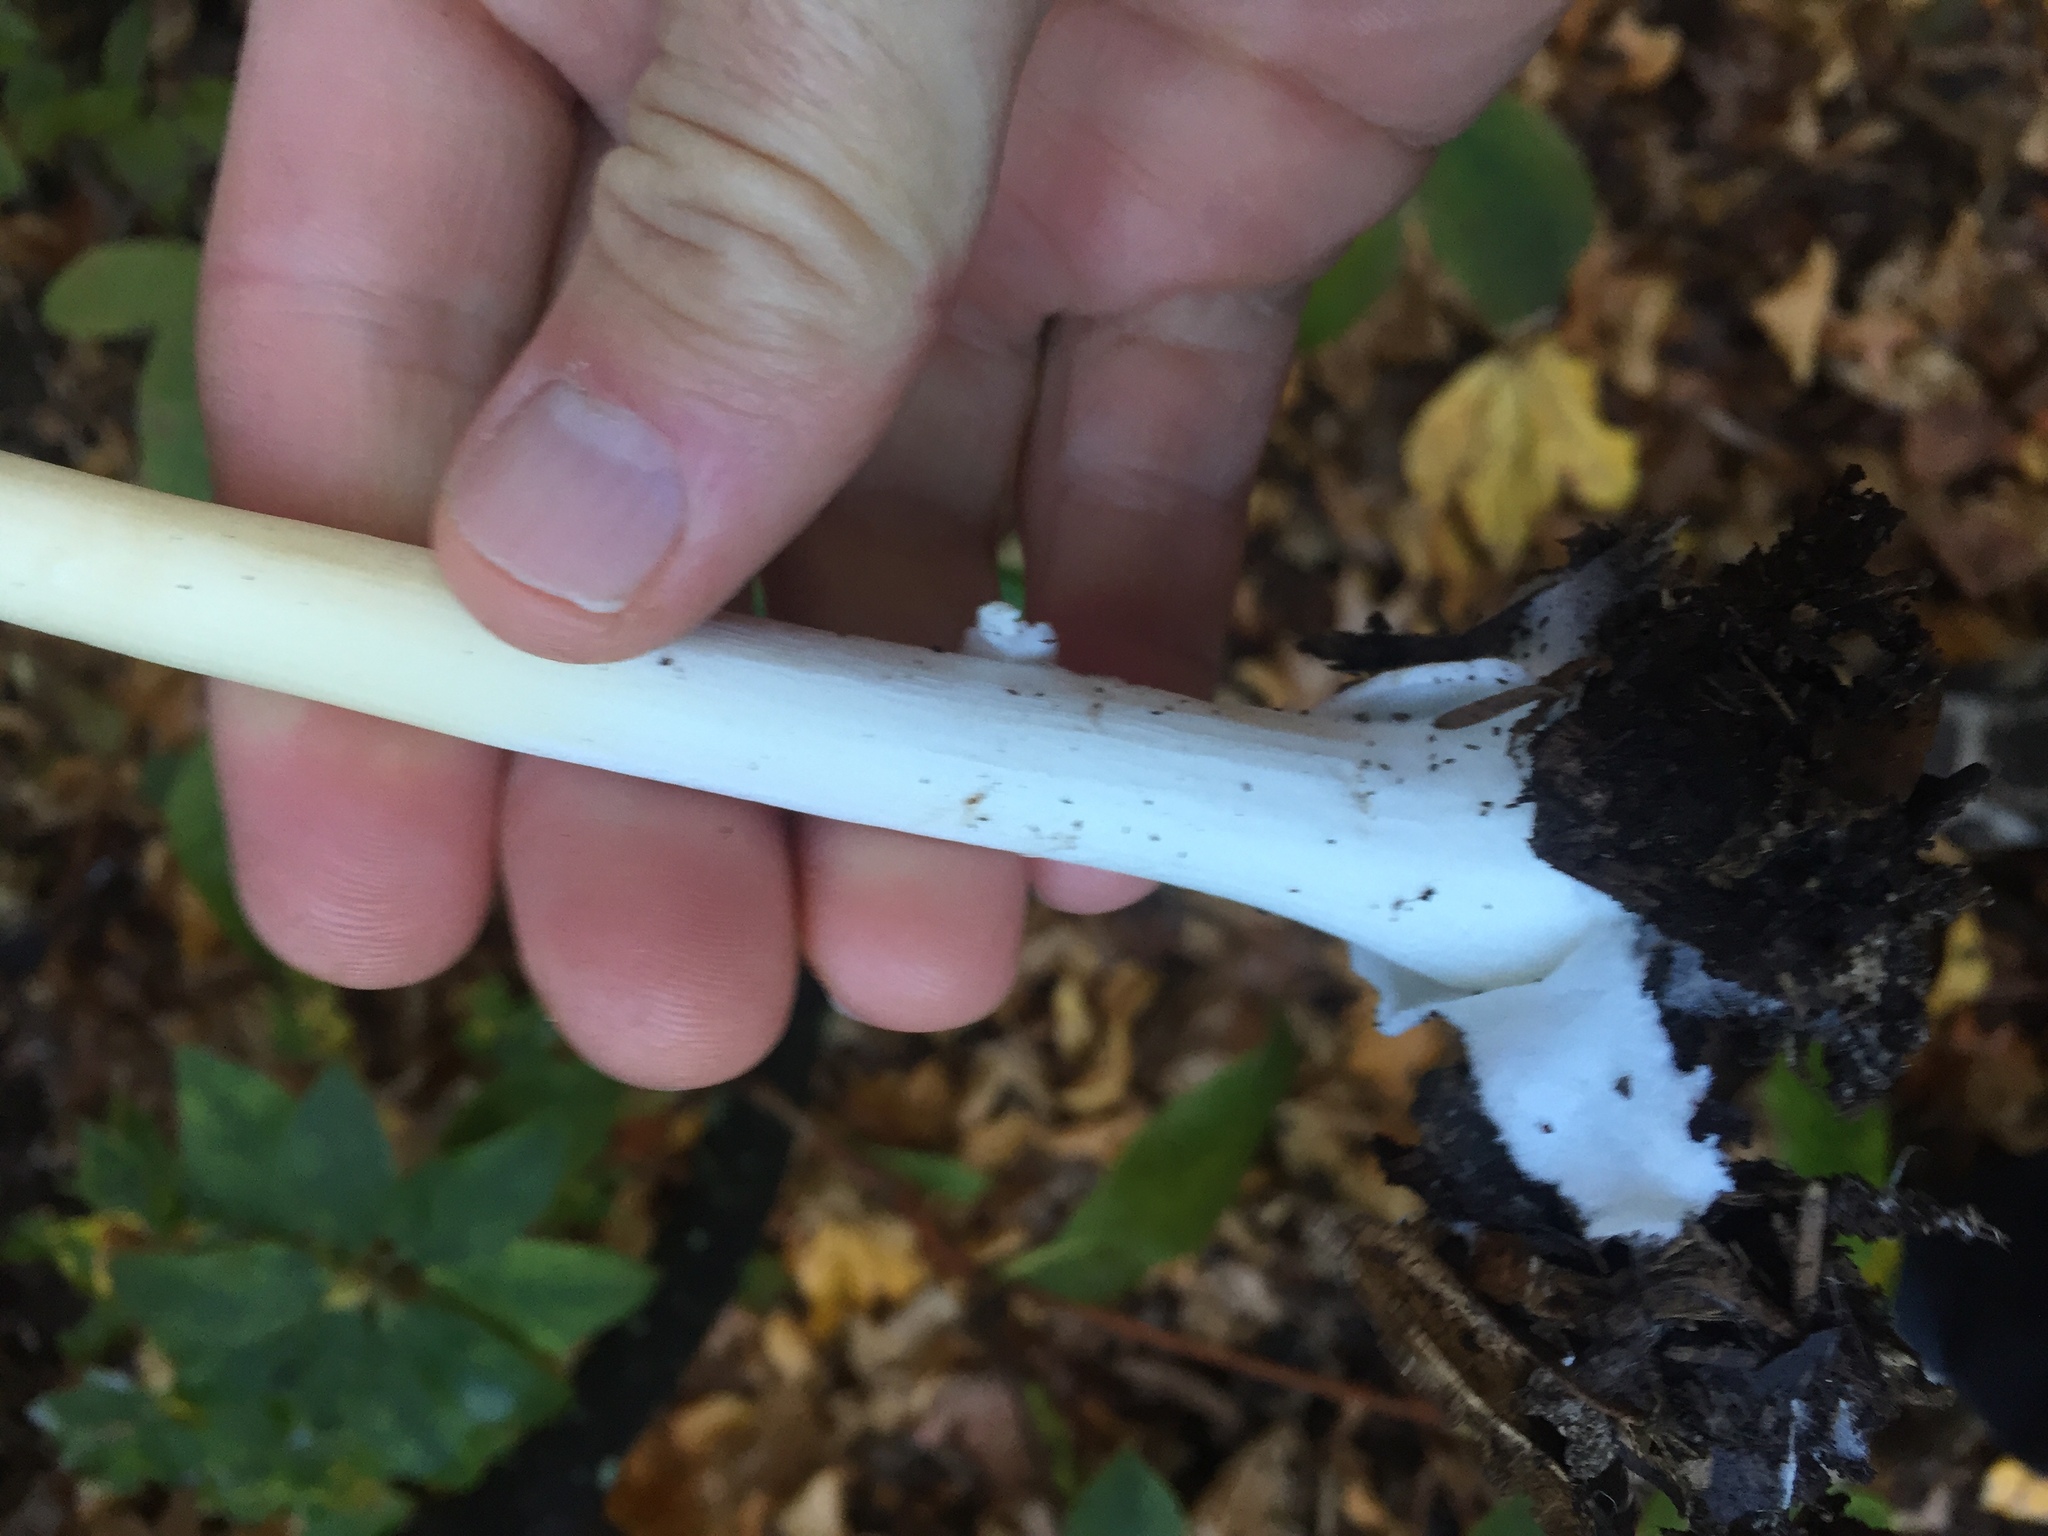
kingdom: Fungi
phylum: Basidiomycota
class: Agaricomycetes
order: Agaricales
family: Pluteaceae
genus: Volvopluteus
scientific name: Volvopluteus gloiocephalus
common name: Stubble rosegill
